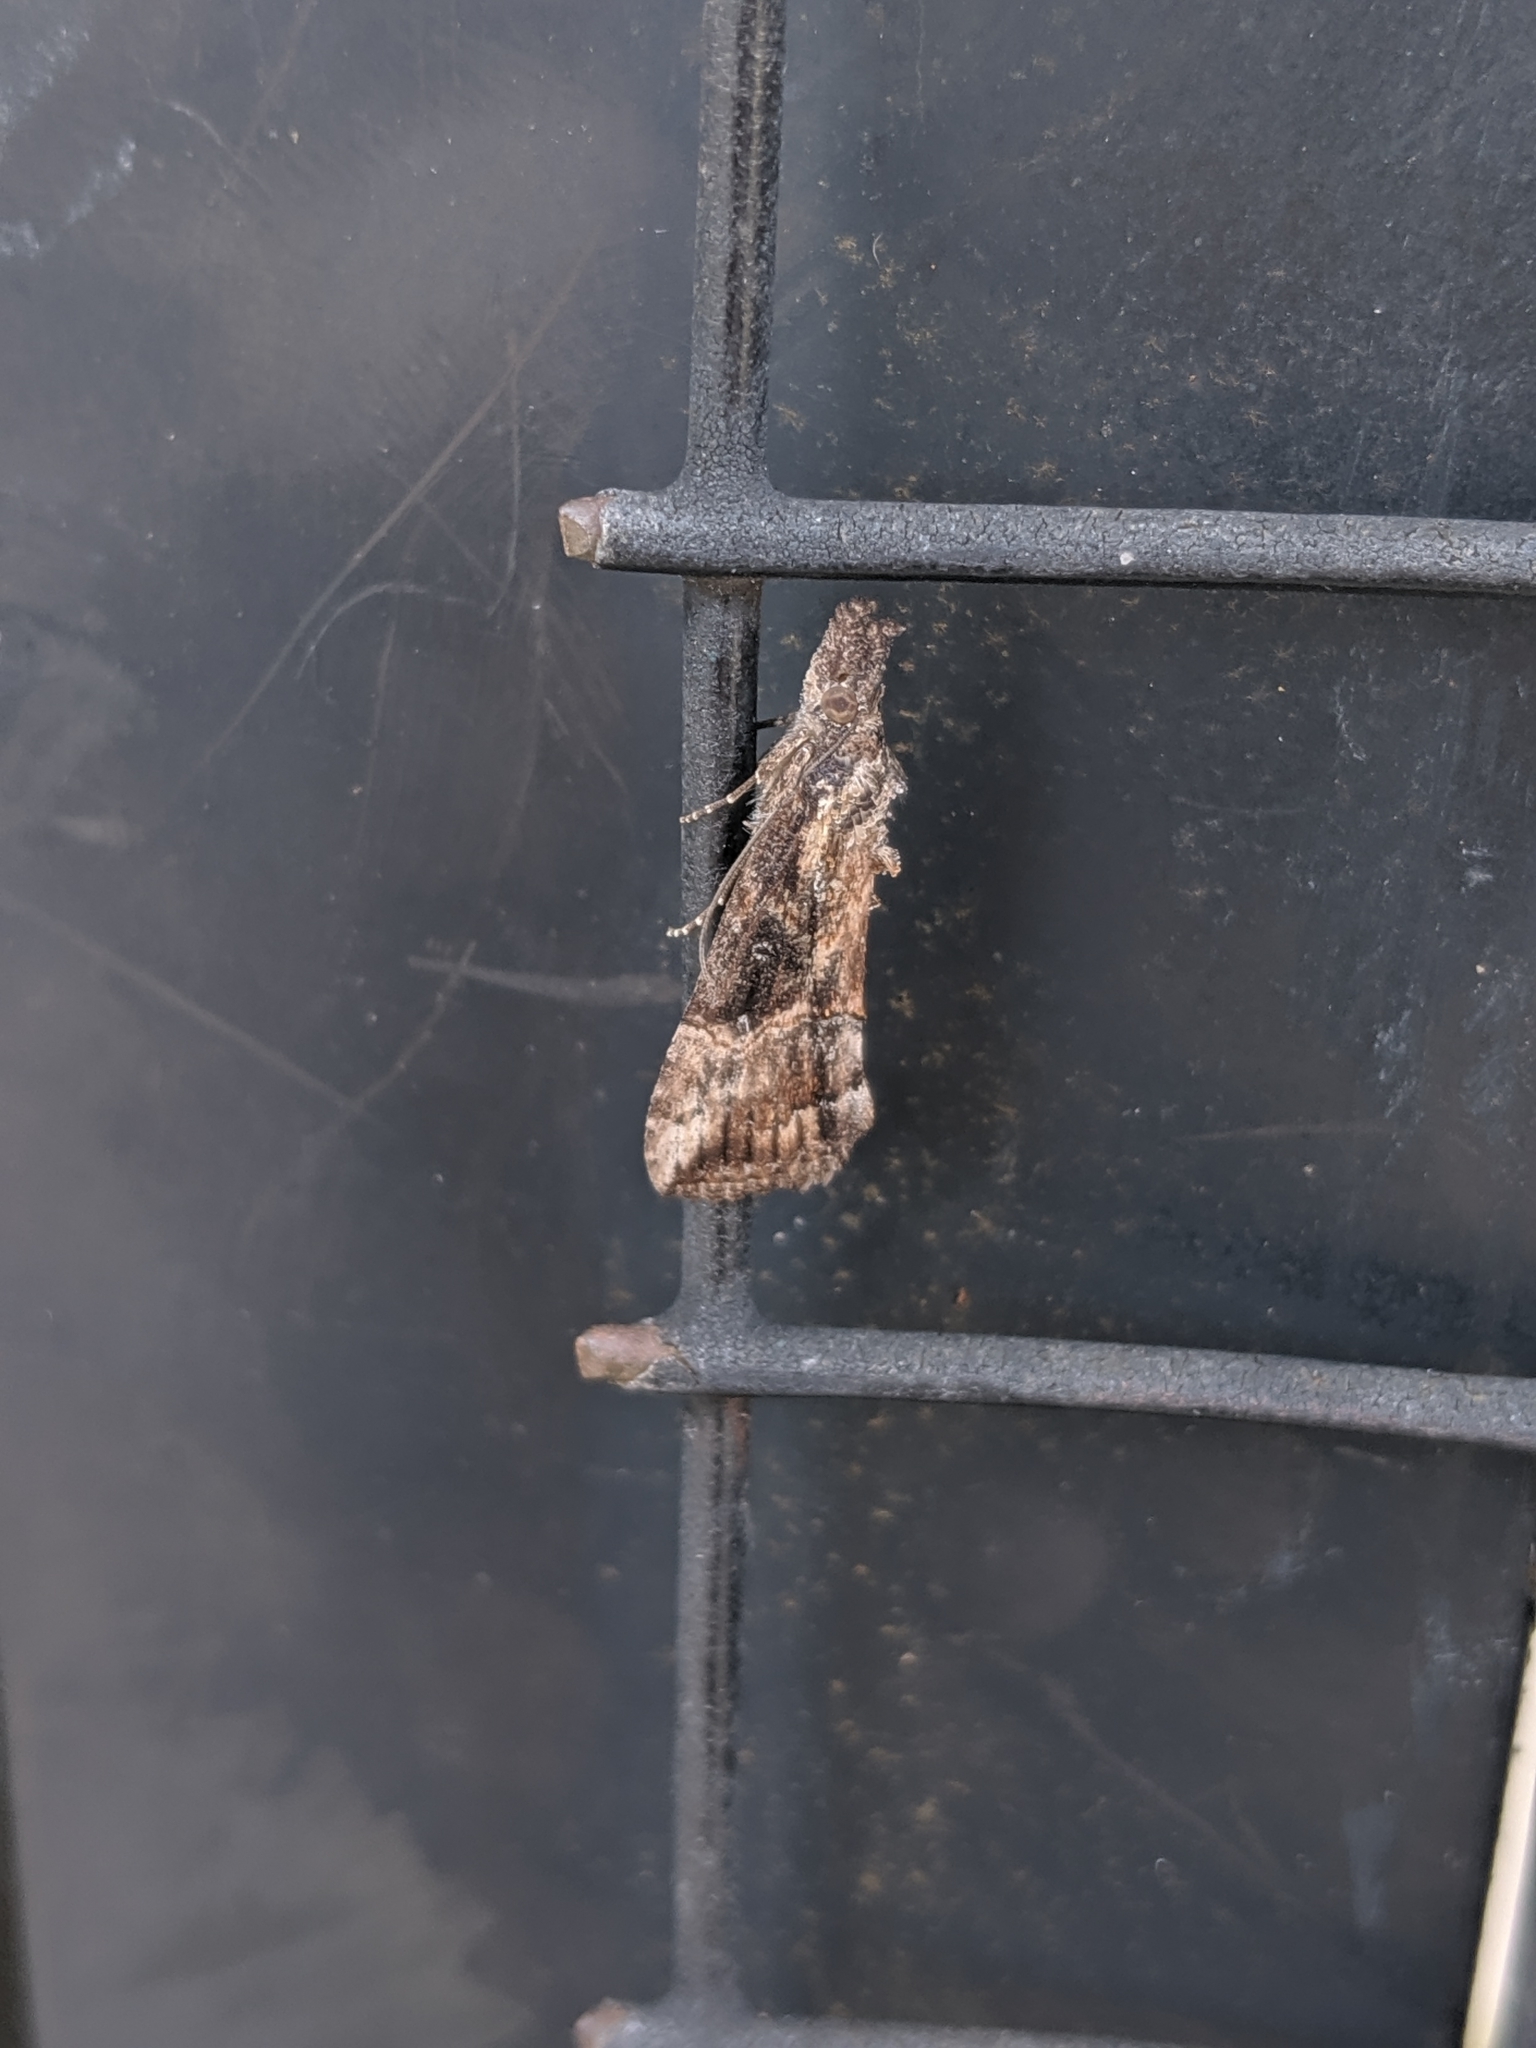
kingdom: Animalia
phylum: Arthropoda
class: Insecta
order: Lepidoptera
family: Erebidae
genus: Hypena
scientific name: Hypena scabra
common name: Green cloverworm
